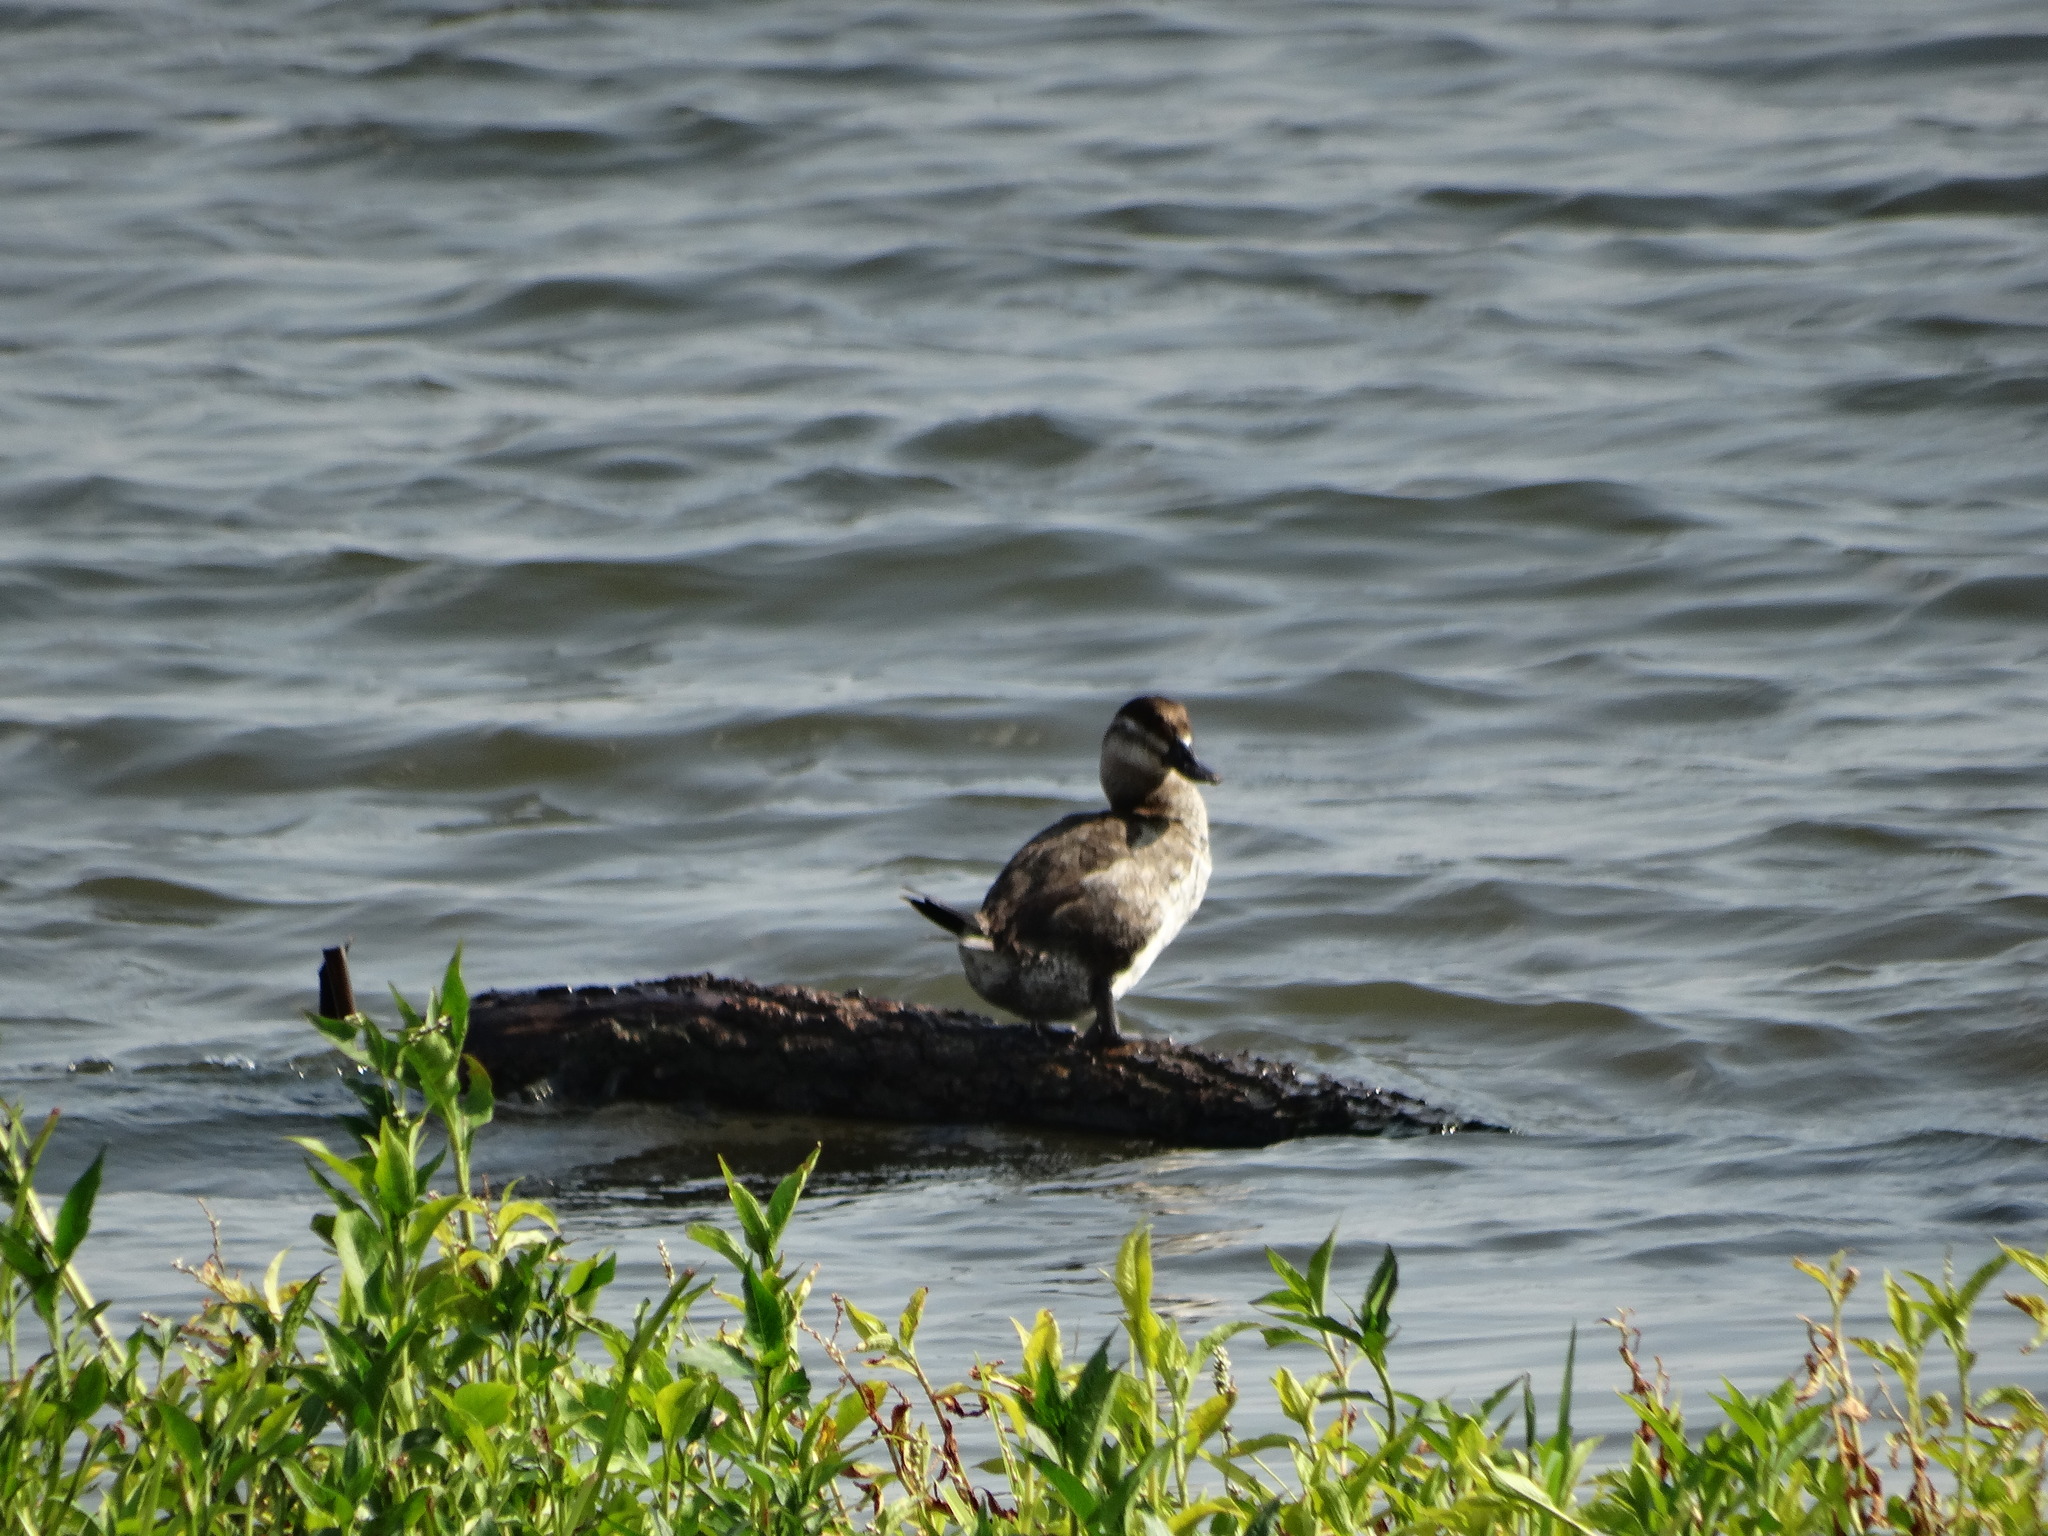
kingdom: Animalia
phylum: Chordata
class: Aves
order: Anseriformes
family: Anatidae
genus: Oxyura
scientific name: Oxyura jamaicensis
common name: Ruddy duck
